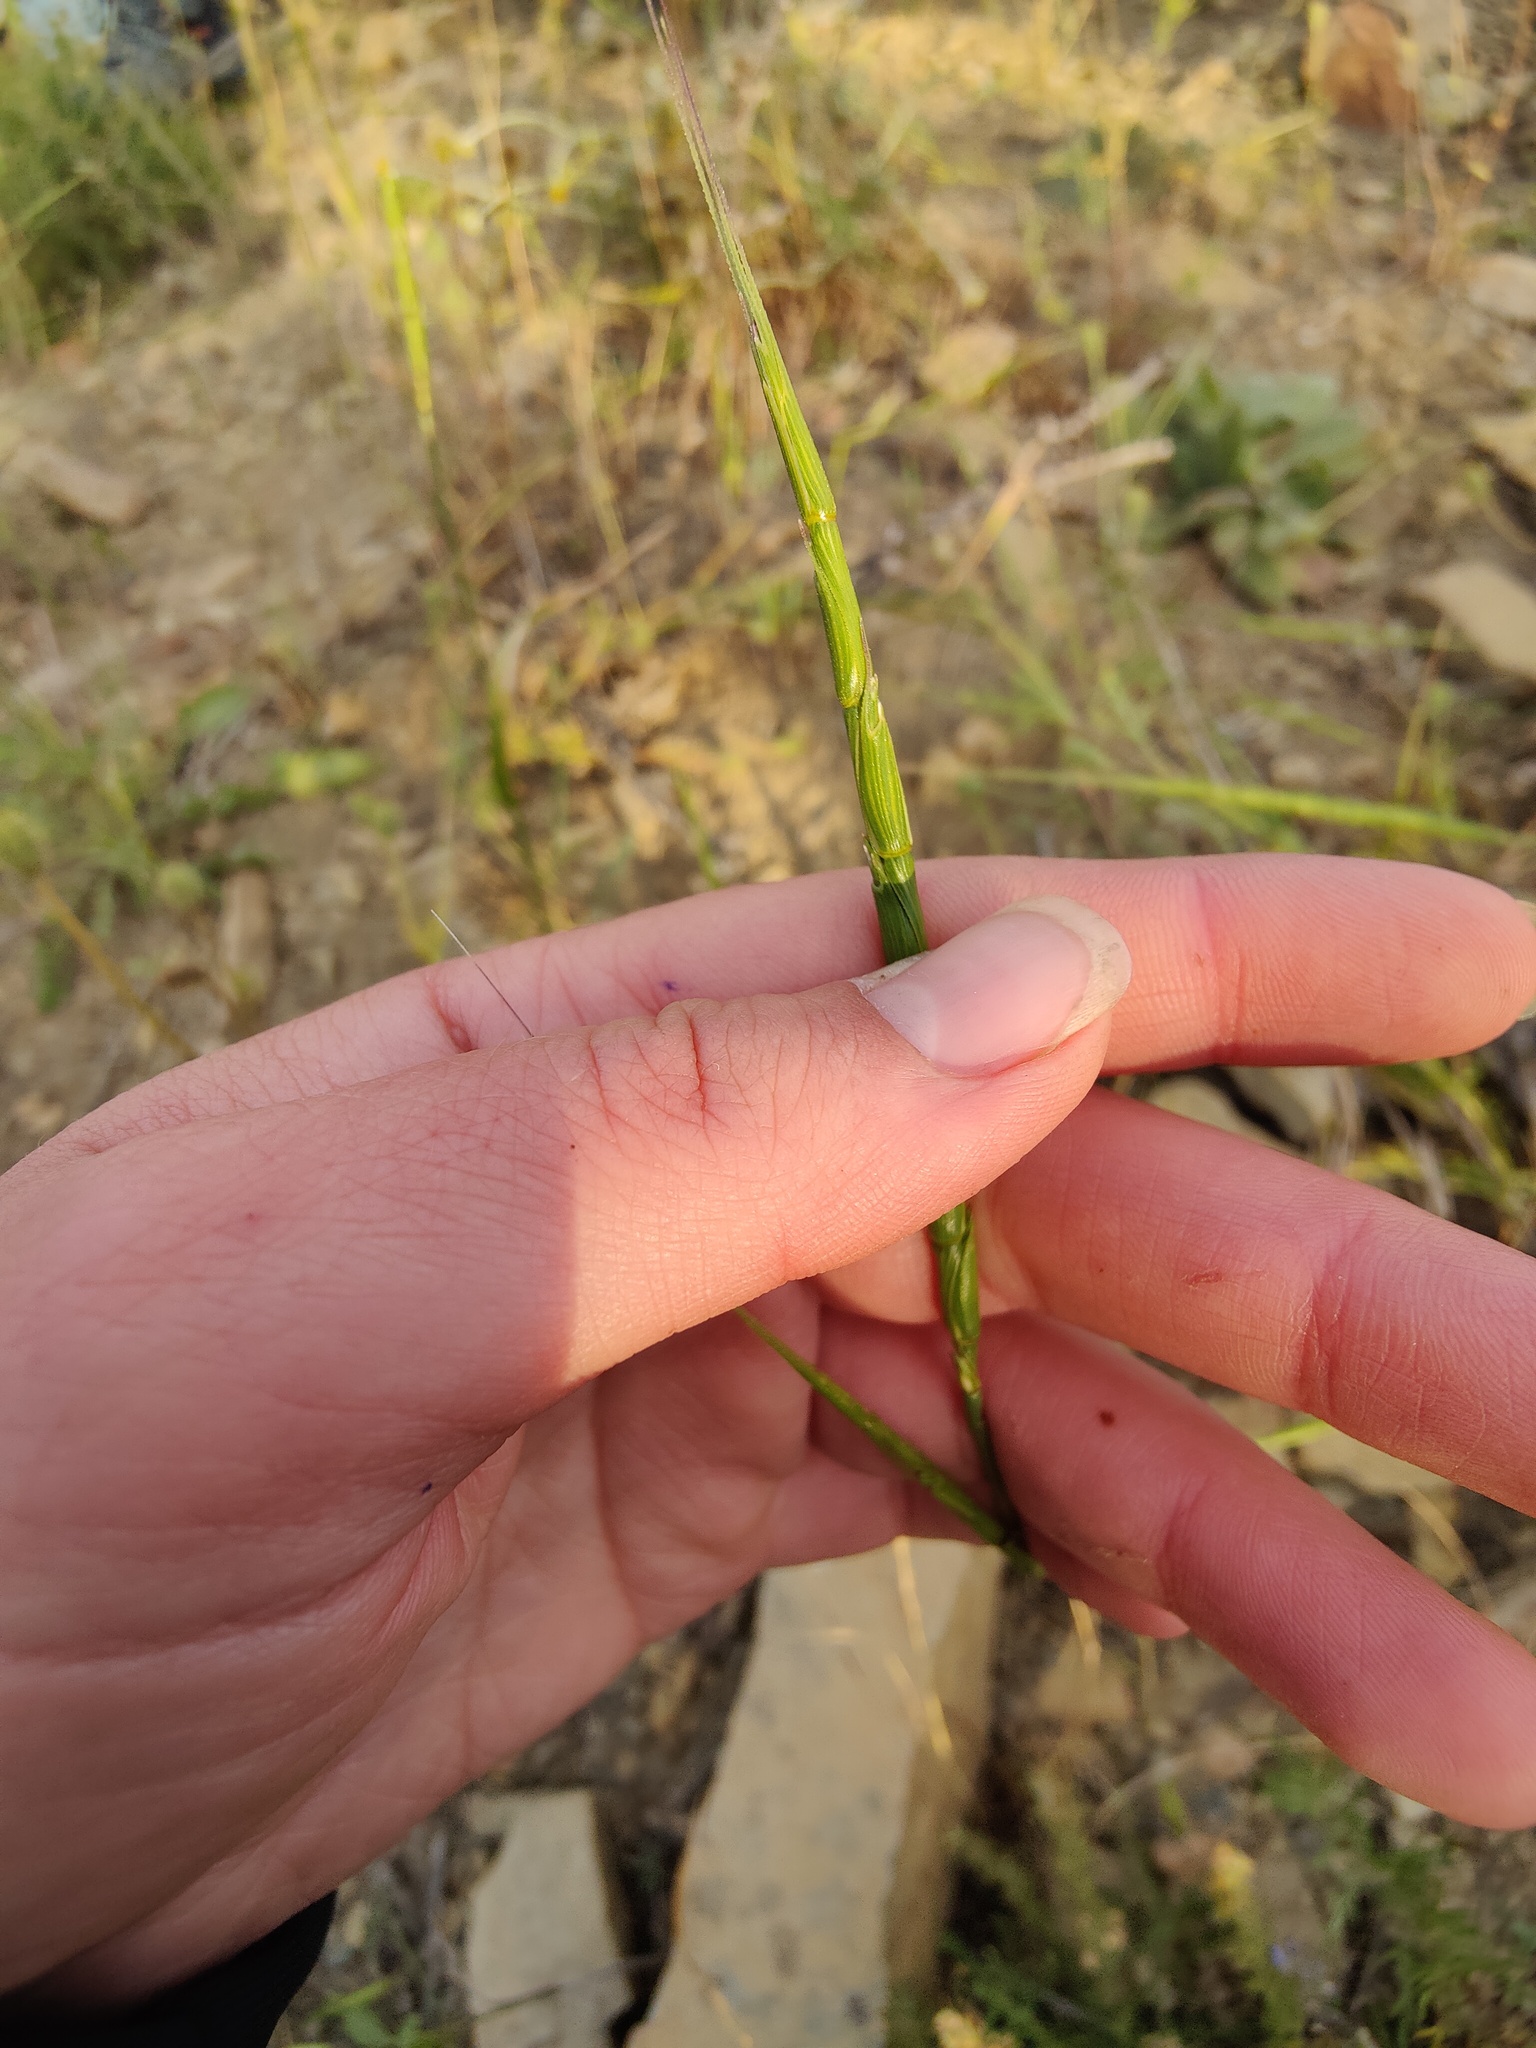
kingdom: Plantae
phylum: Tracheophyta
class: Liliopsida
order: Poales
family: Poaceae
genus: Aegilops
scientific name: Aegilops cylindrica
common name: Jointed goatgrass
